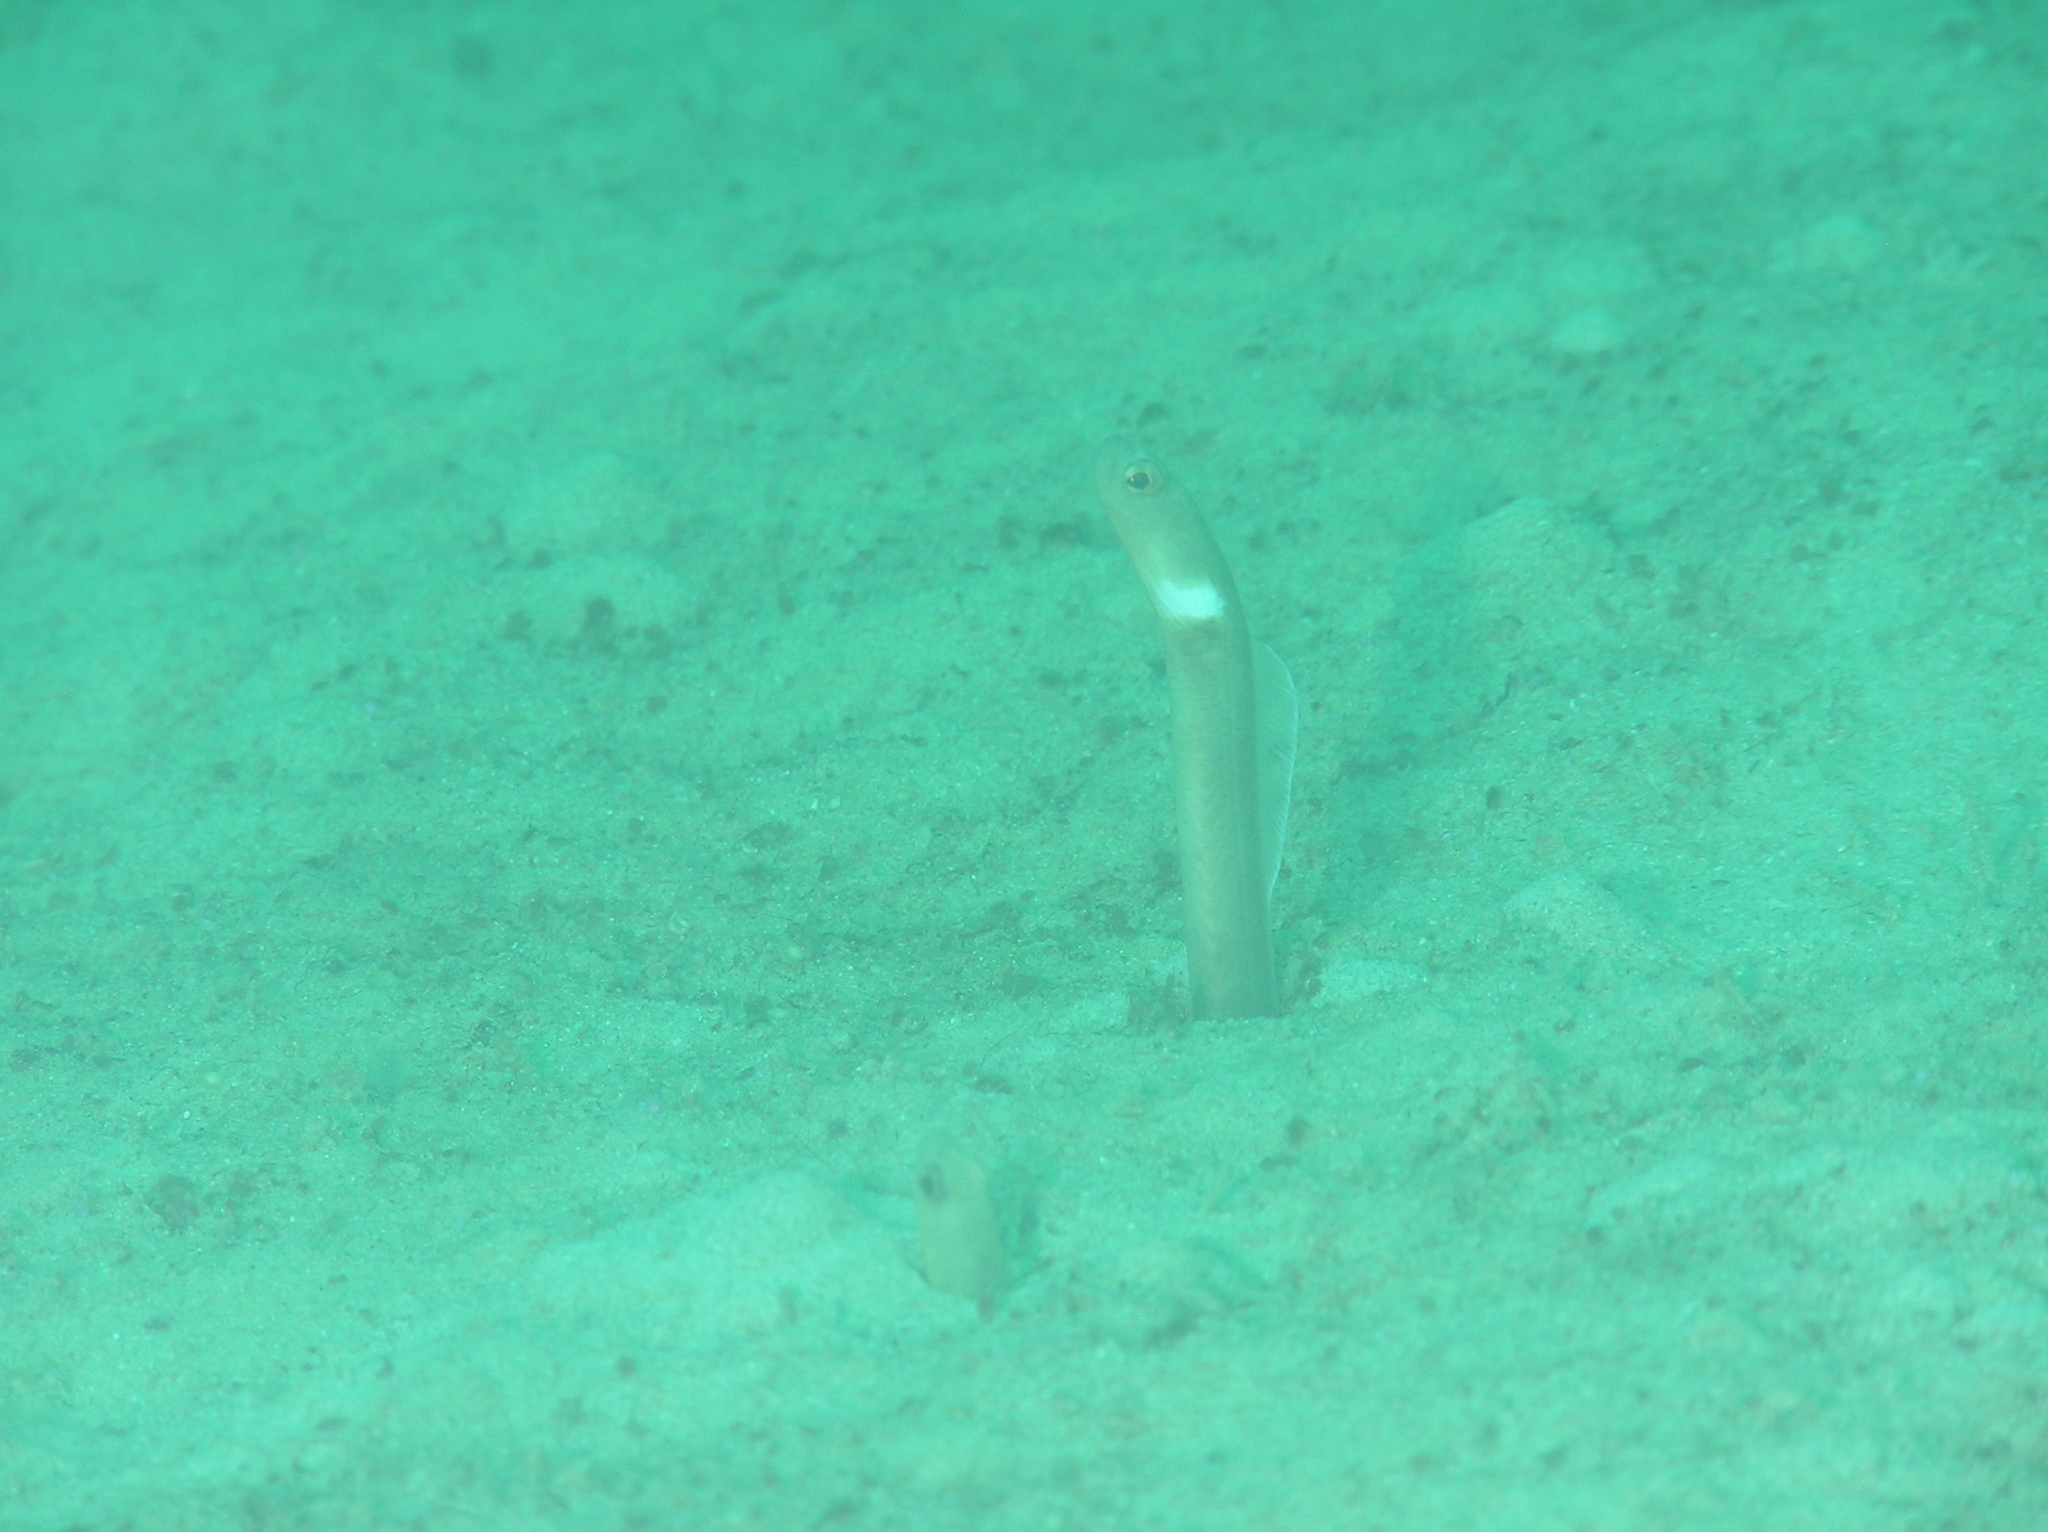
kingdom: Animalia
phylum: Chordata
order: Anguilliformes
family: Congridae
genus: Heteroconger
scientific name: Heteroconger perissodon
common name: Black garden eel
